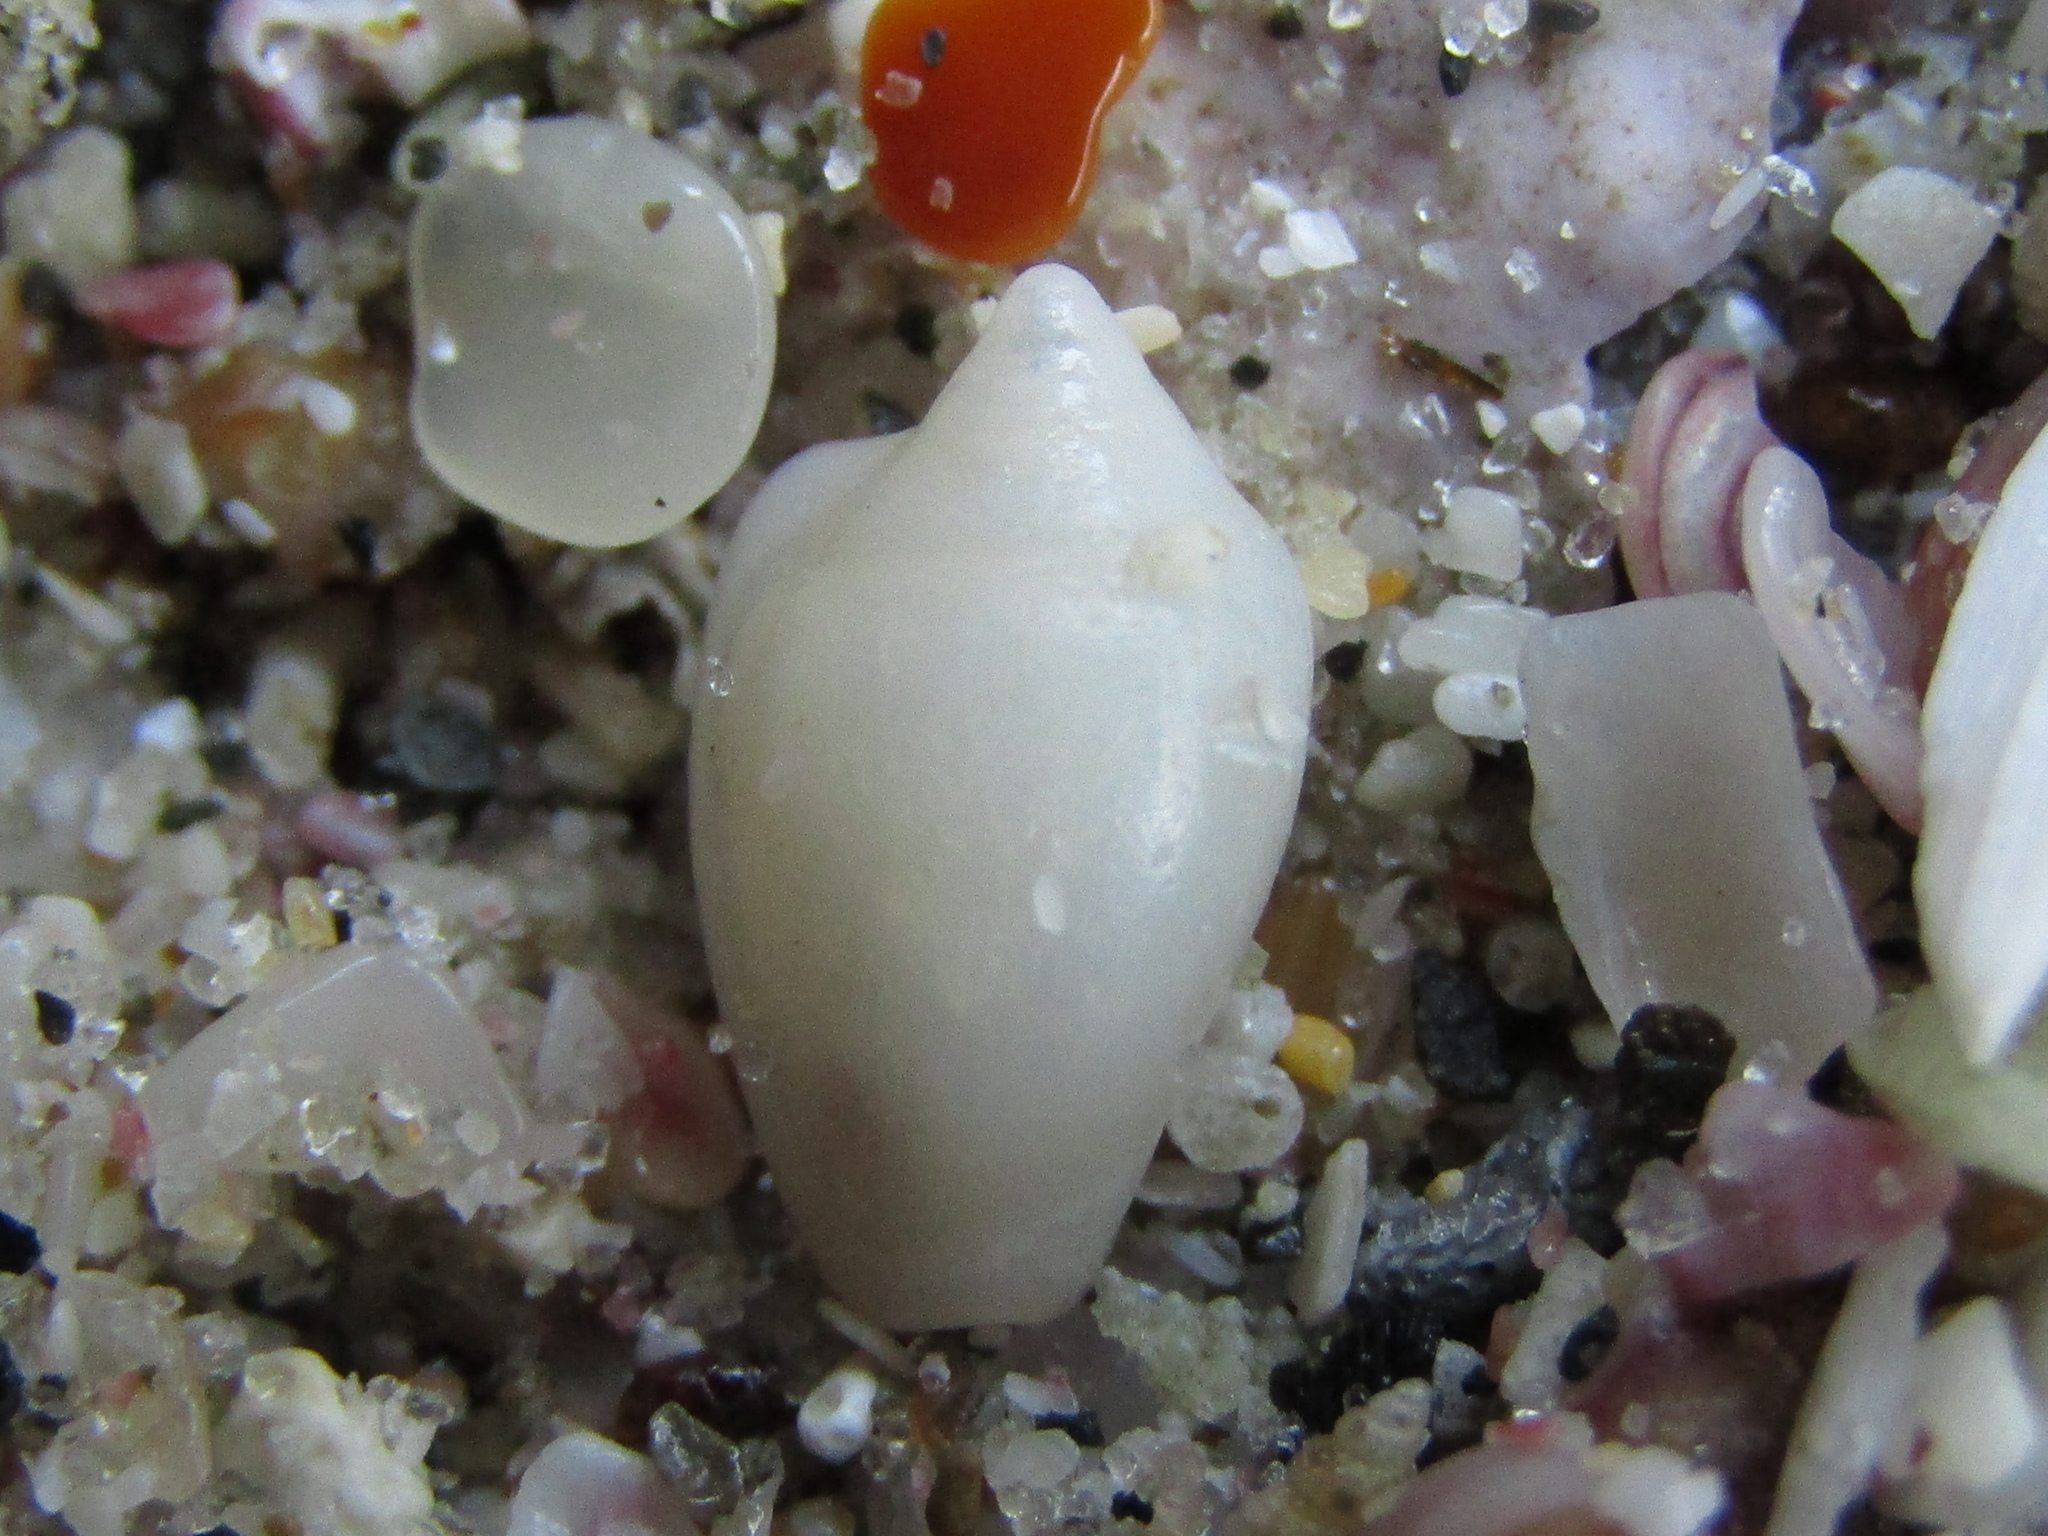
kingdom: Animalia
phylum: Mollusca
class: Gastropoda
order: Neogastropoda
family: Marginellidae
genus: Mesoginella
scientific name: Mesoginella vailei
